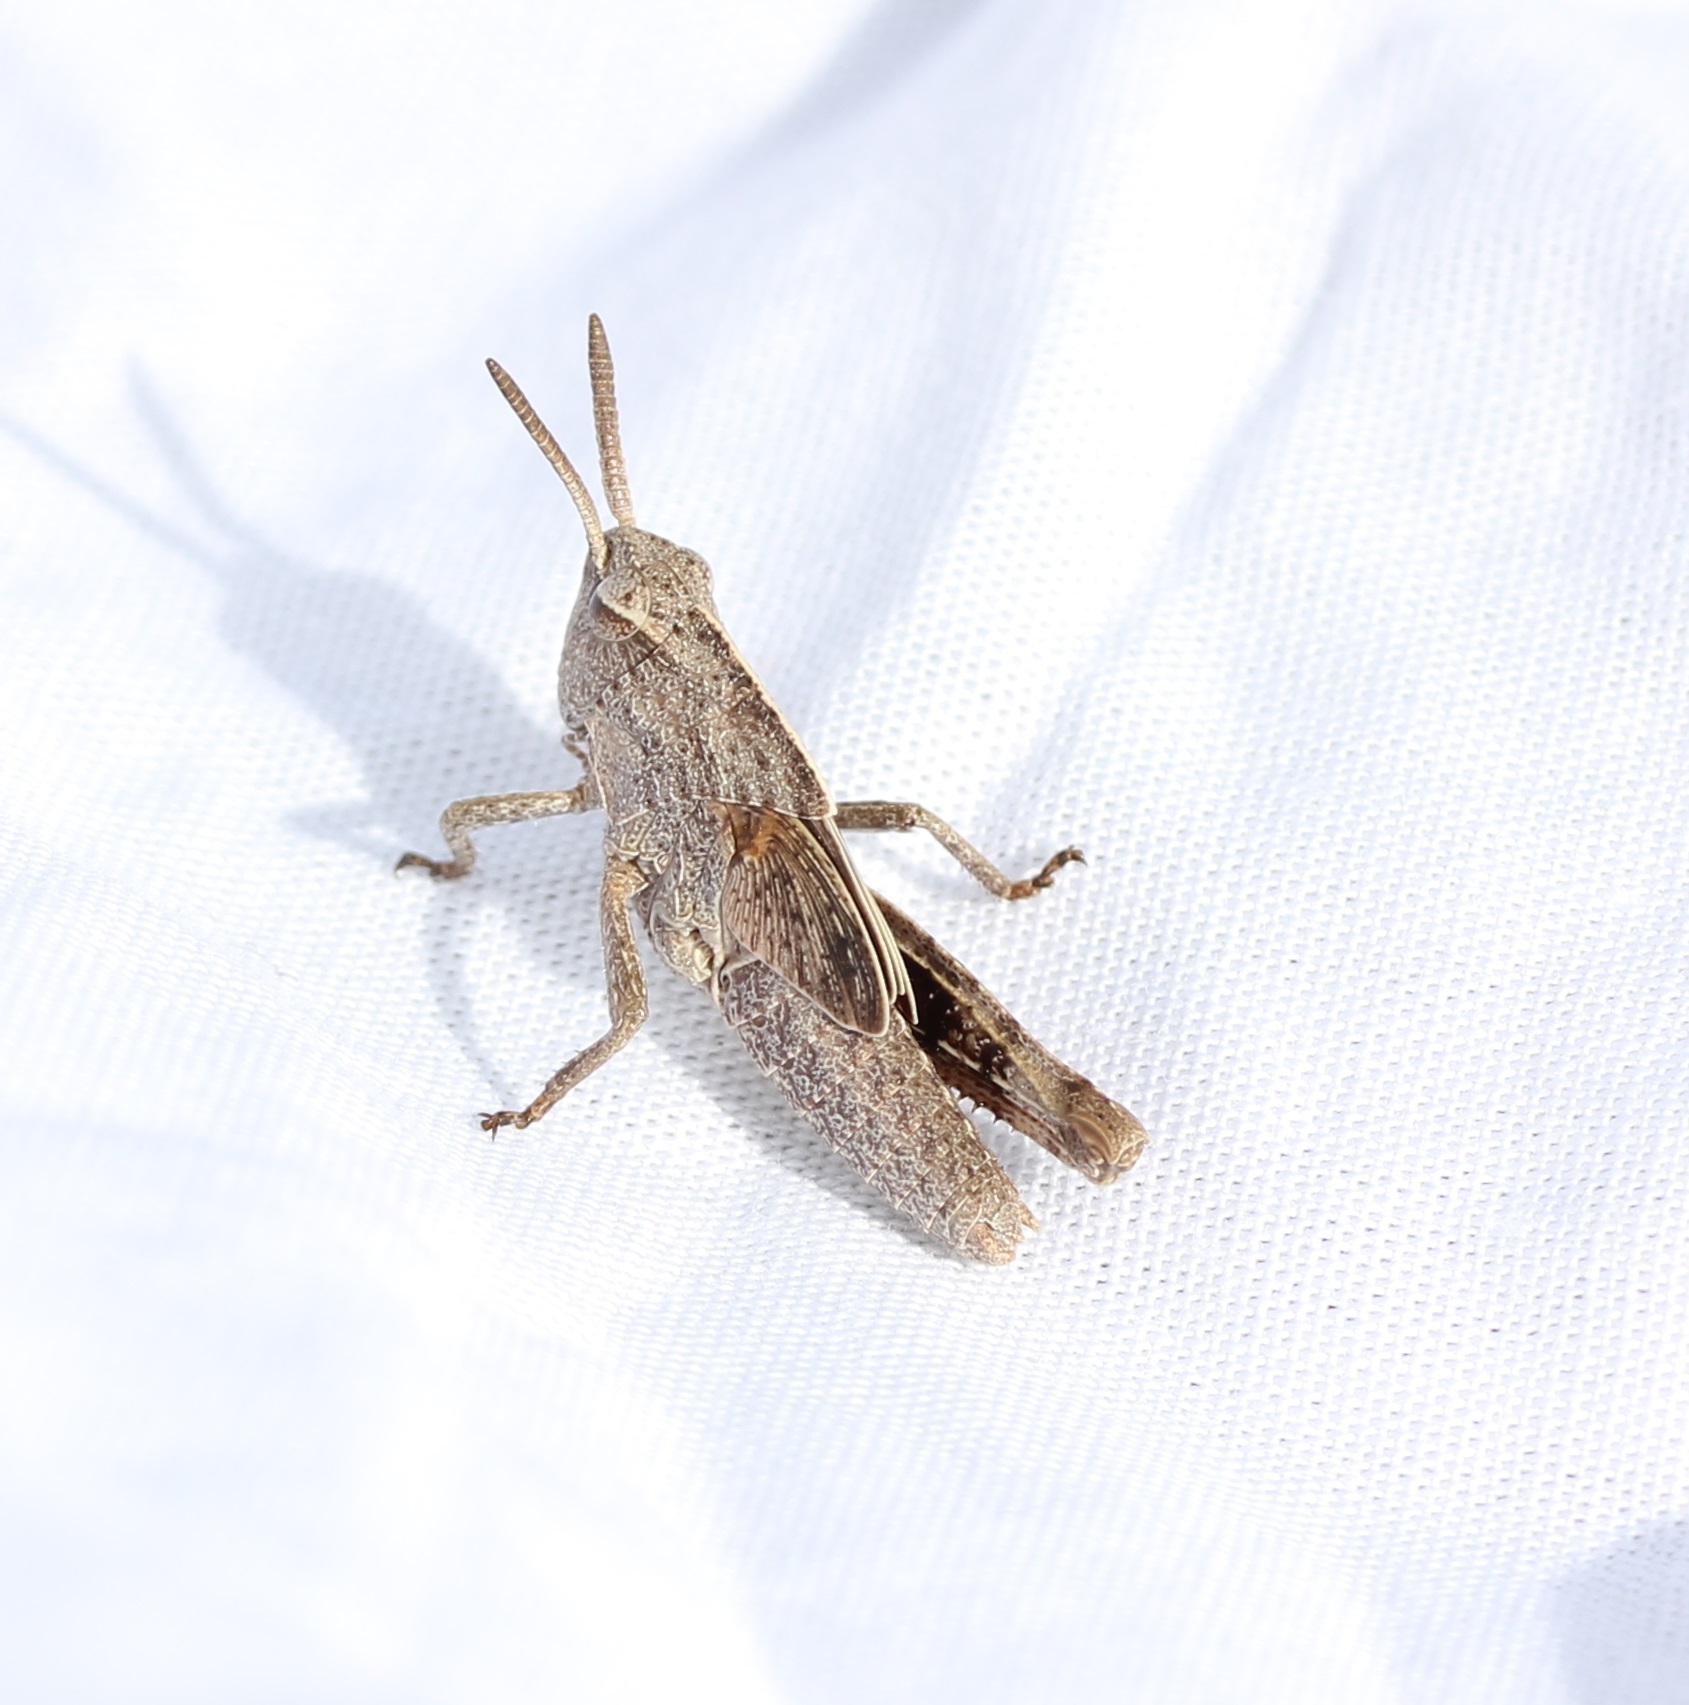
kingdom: Animalia
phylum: Arthropoda
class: Insecta
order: Orthoptera
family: Acrididae
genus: Chortophaga
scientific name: Chortophaga viridifasciata
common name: Green-striped grasshopper
